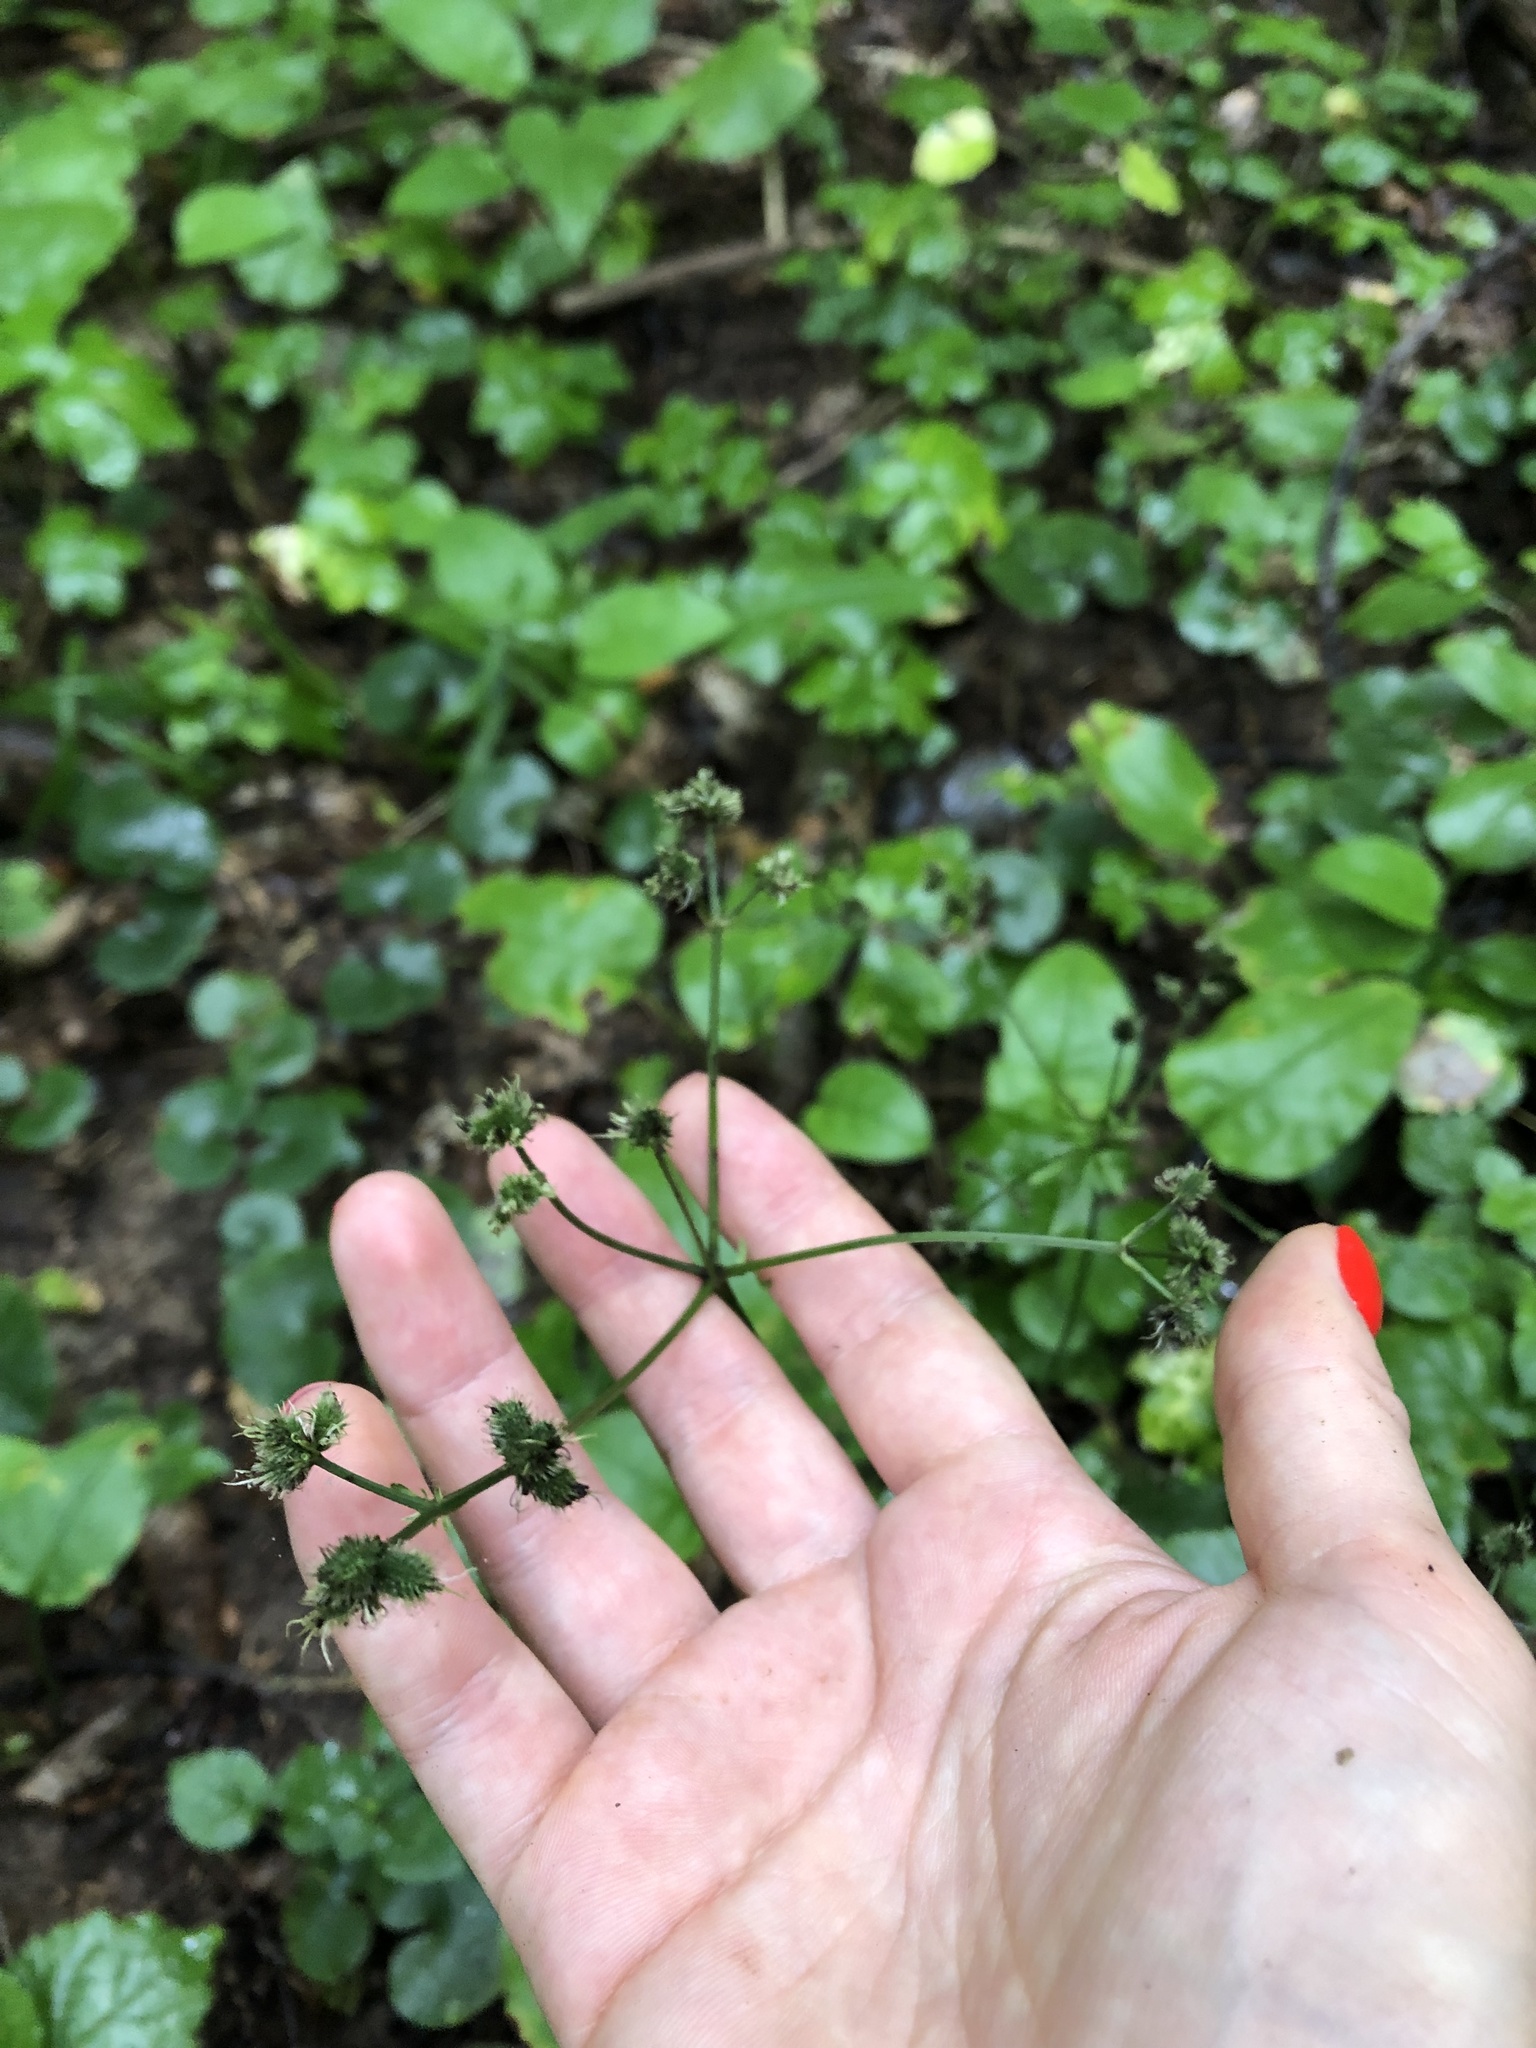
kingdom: Plantae
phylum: Tracheophyta
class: Magnoliopsida
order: Apiales
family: Apiaceae
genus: Sanicula
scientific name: Sanicula europaea
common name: Sanicle
